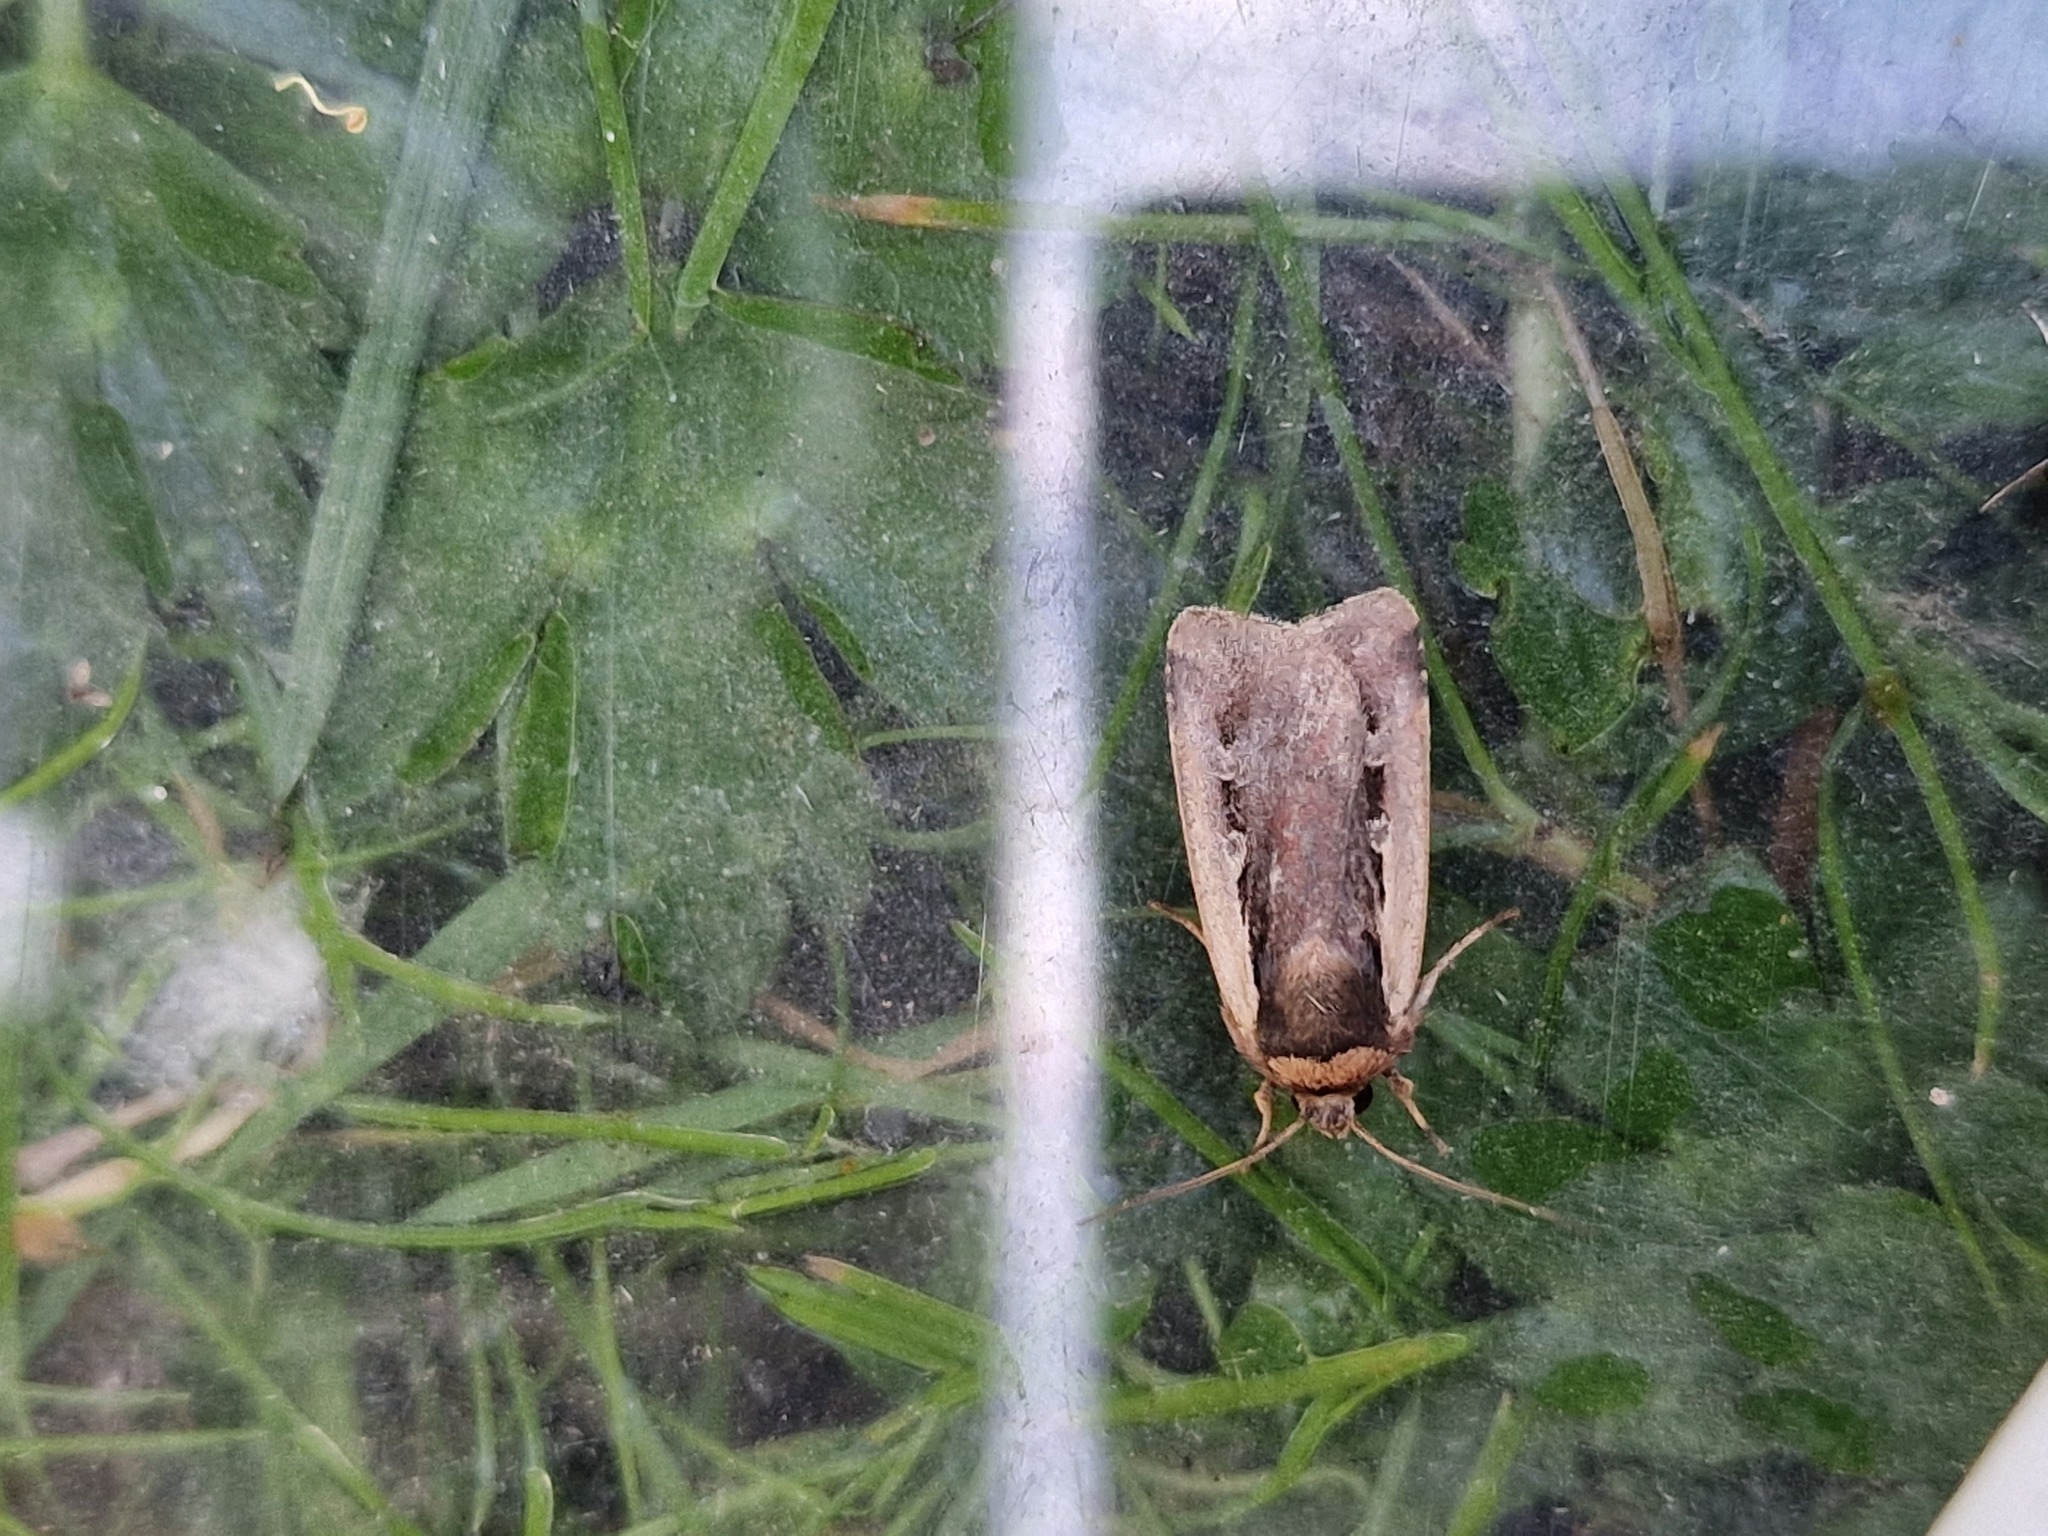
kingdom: Animalia
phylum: Arthropoda
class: Insecta
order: Lepidoptera
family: Noctuidae
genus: Ochropleura
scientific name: Ochropleura plecta
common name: Flame shoulder
